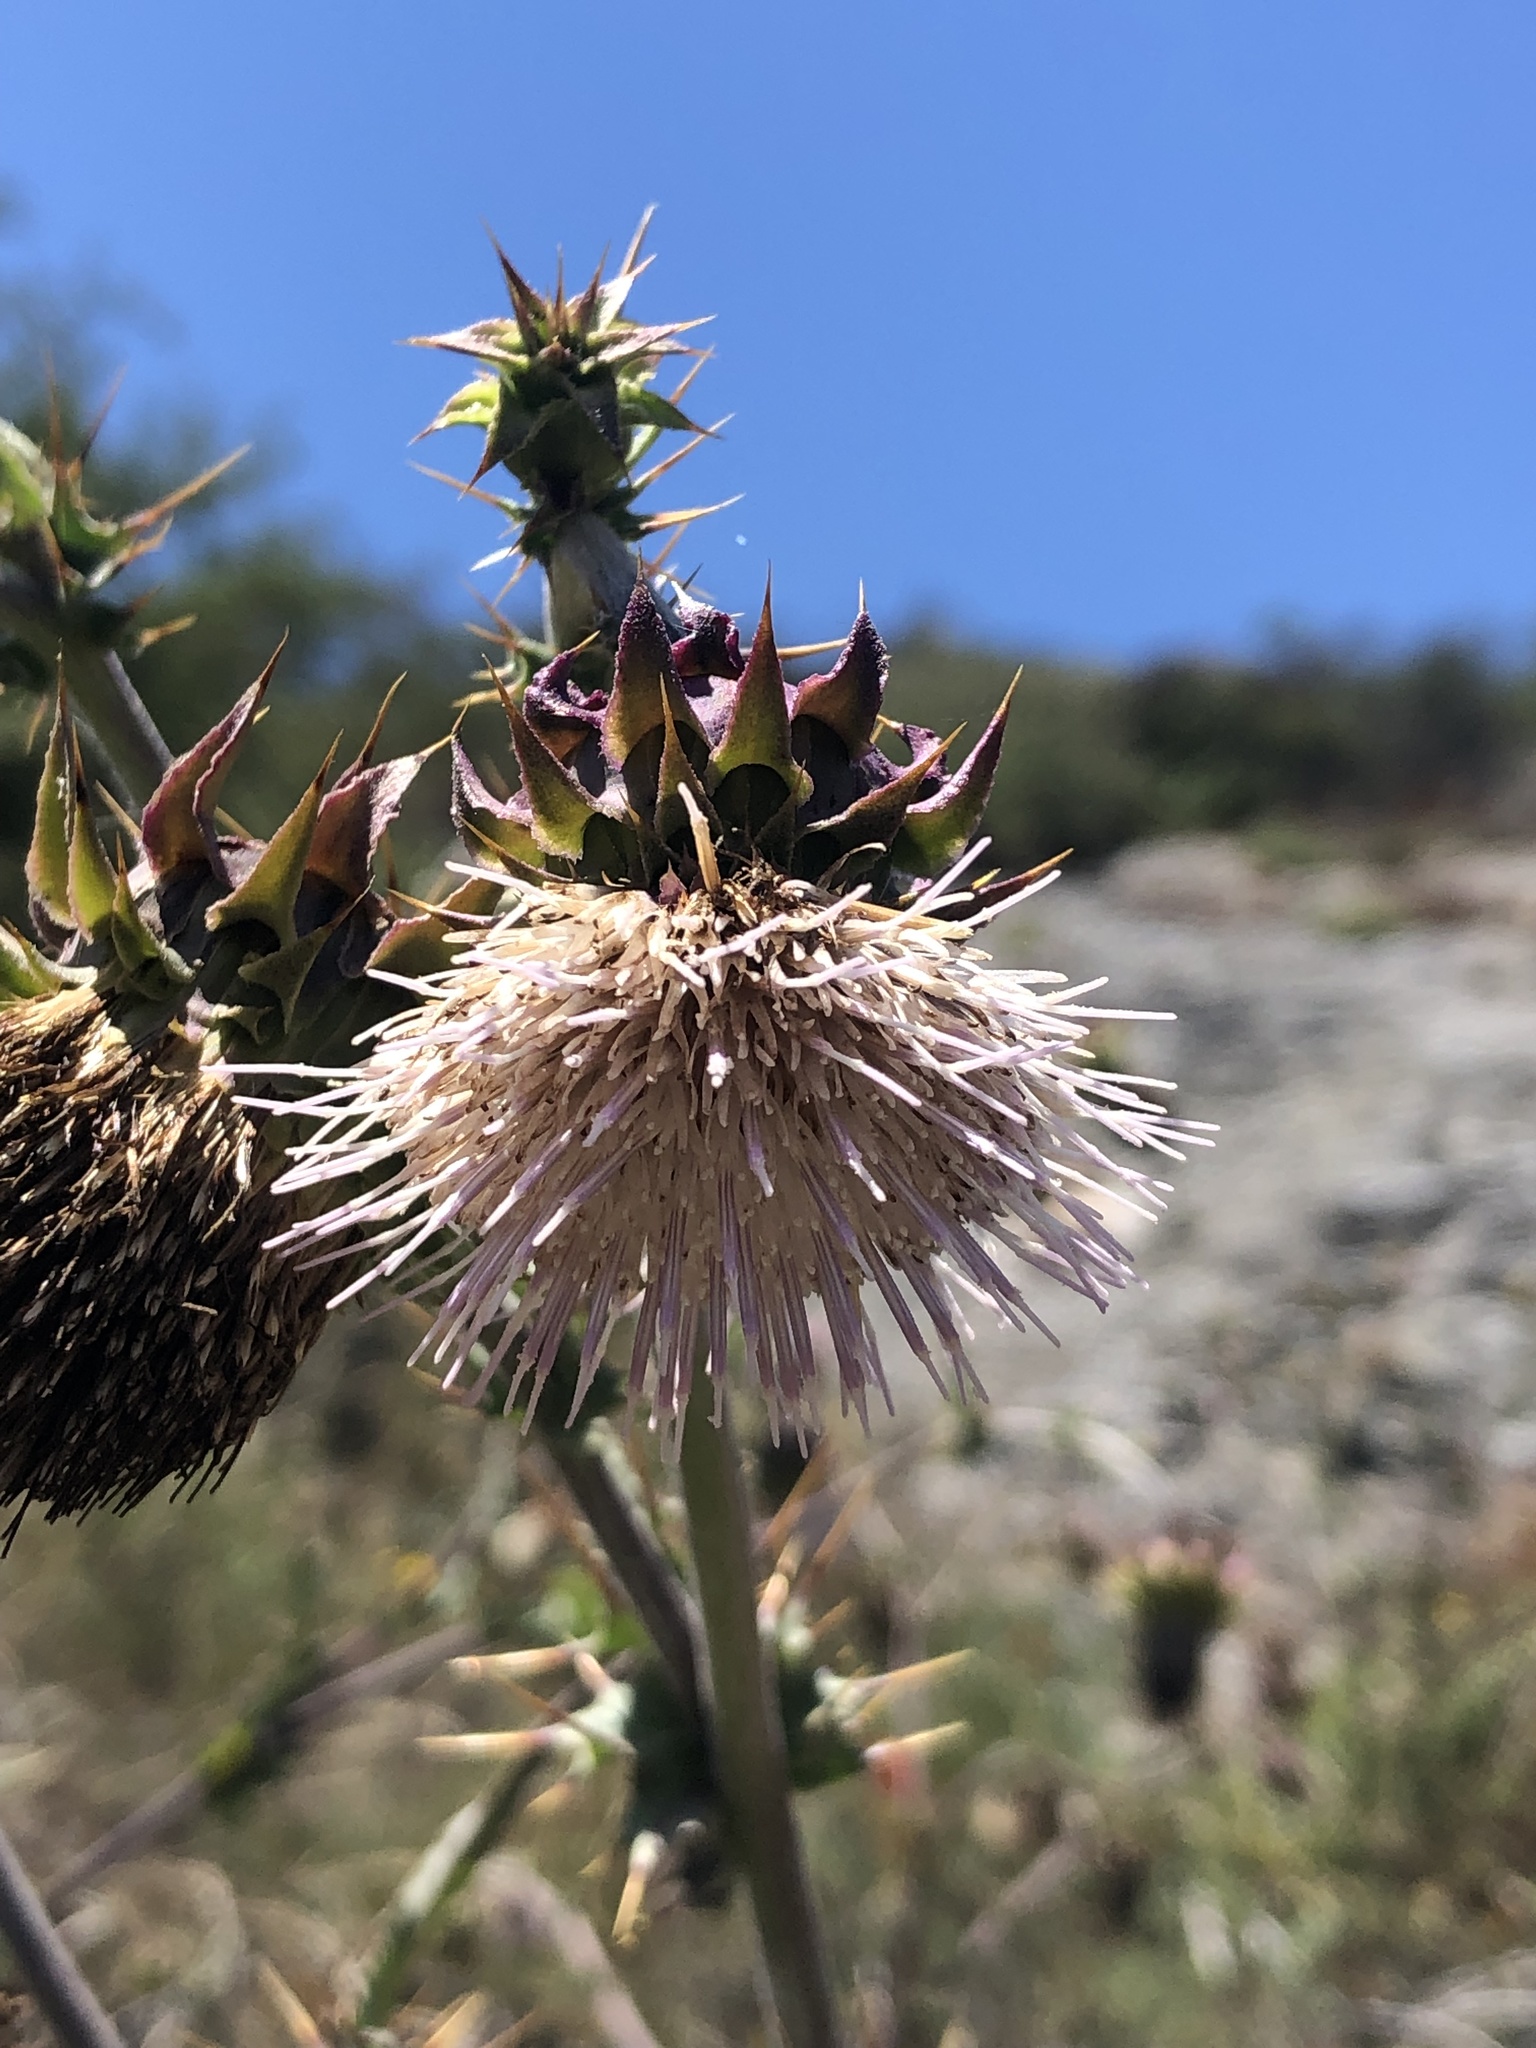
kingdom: Plantae
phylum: Tracheophyta
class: Magnoliopsida
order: Asterales
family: Asteraceae
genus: Cirsium
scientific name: Cirsium fontinale
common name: Fountain thistle
